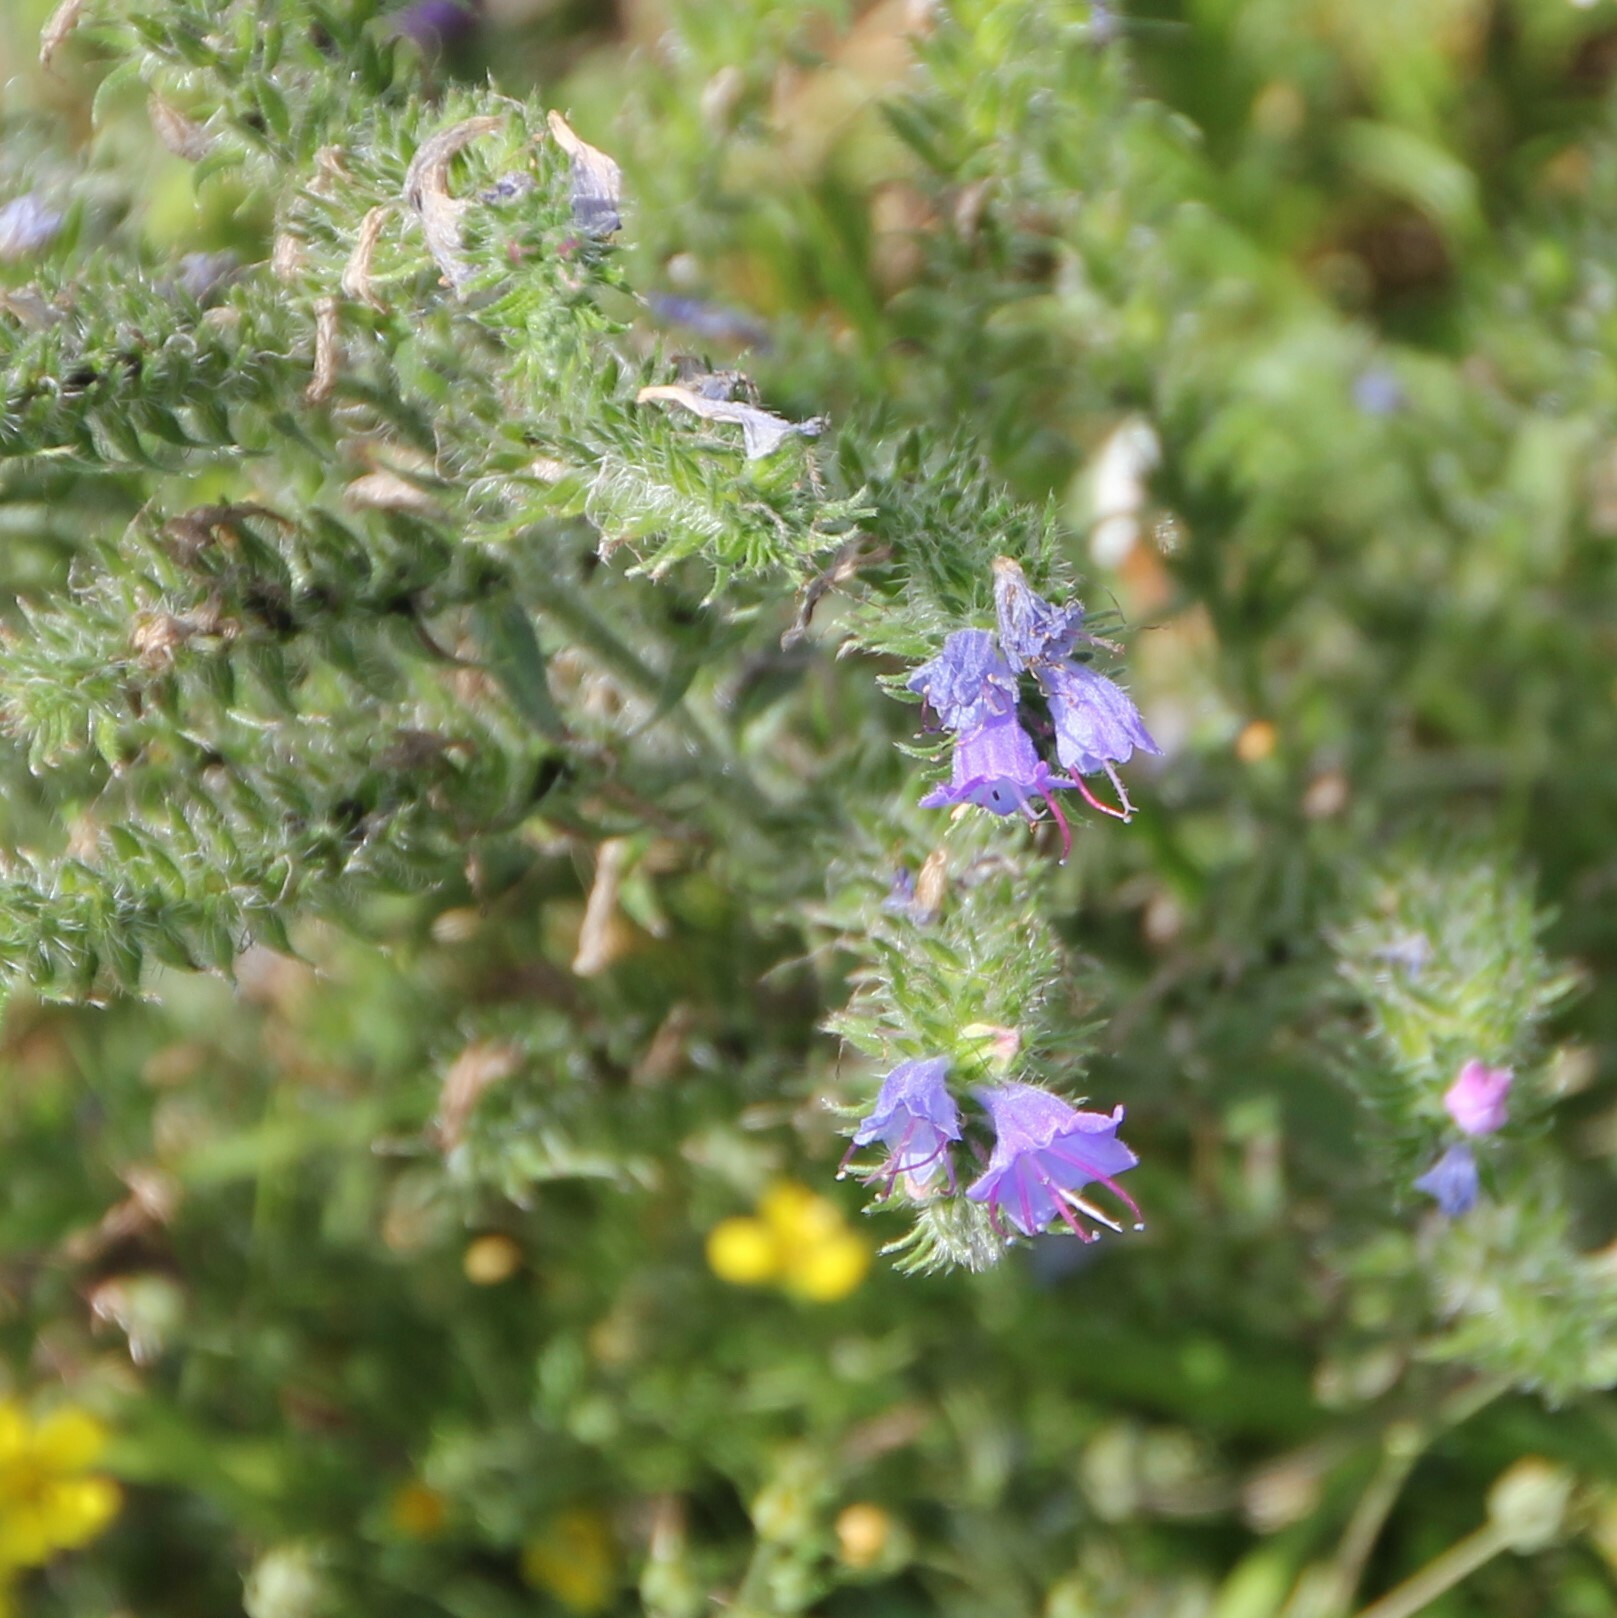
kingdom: Plantae
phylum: Tracheophyta
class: Magnoliopsida
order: Boraginales
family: Boraginaceae
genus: Echium
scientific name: Echium vulgare
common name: Common viper's bugloss
